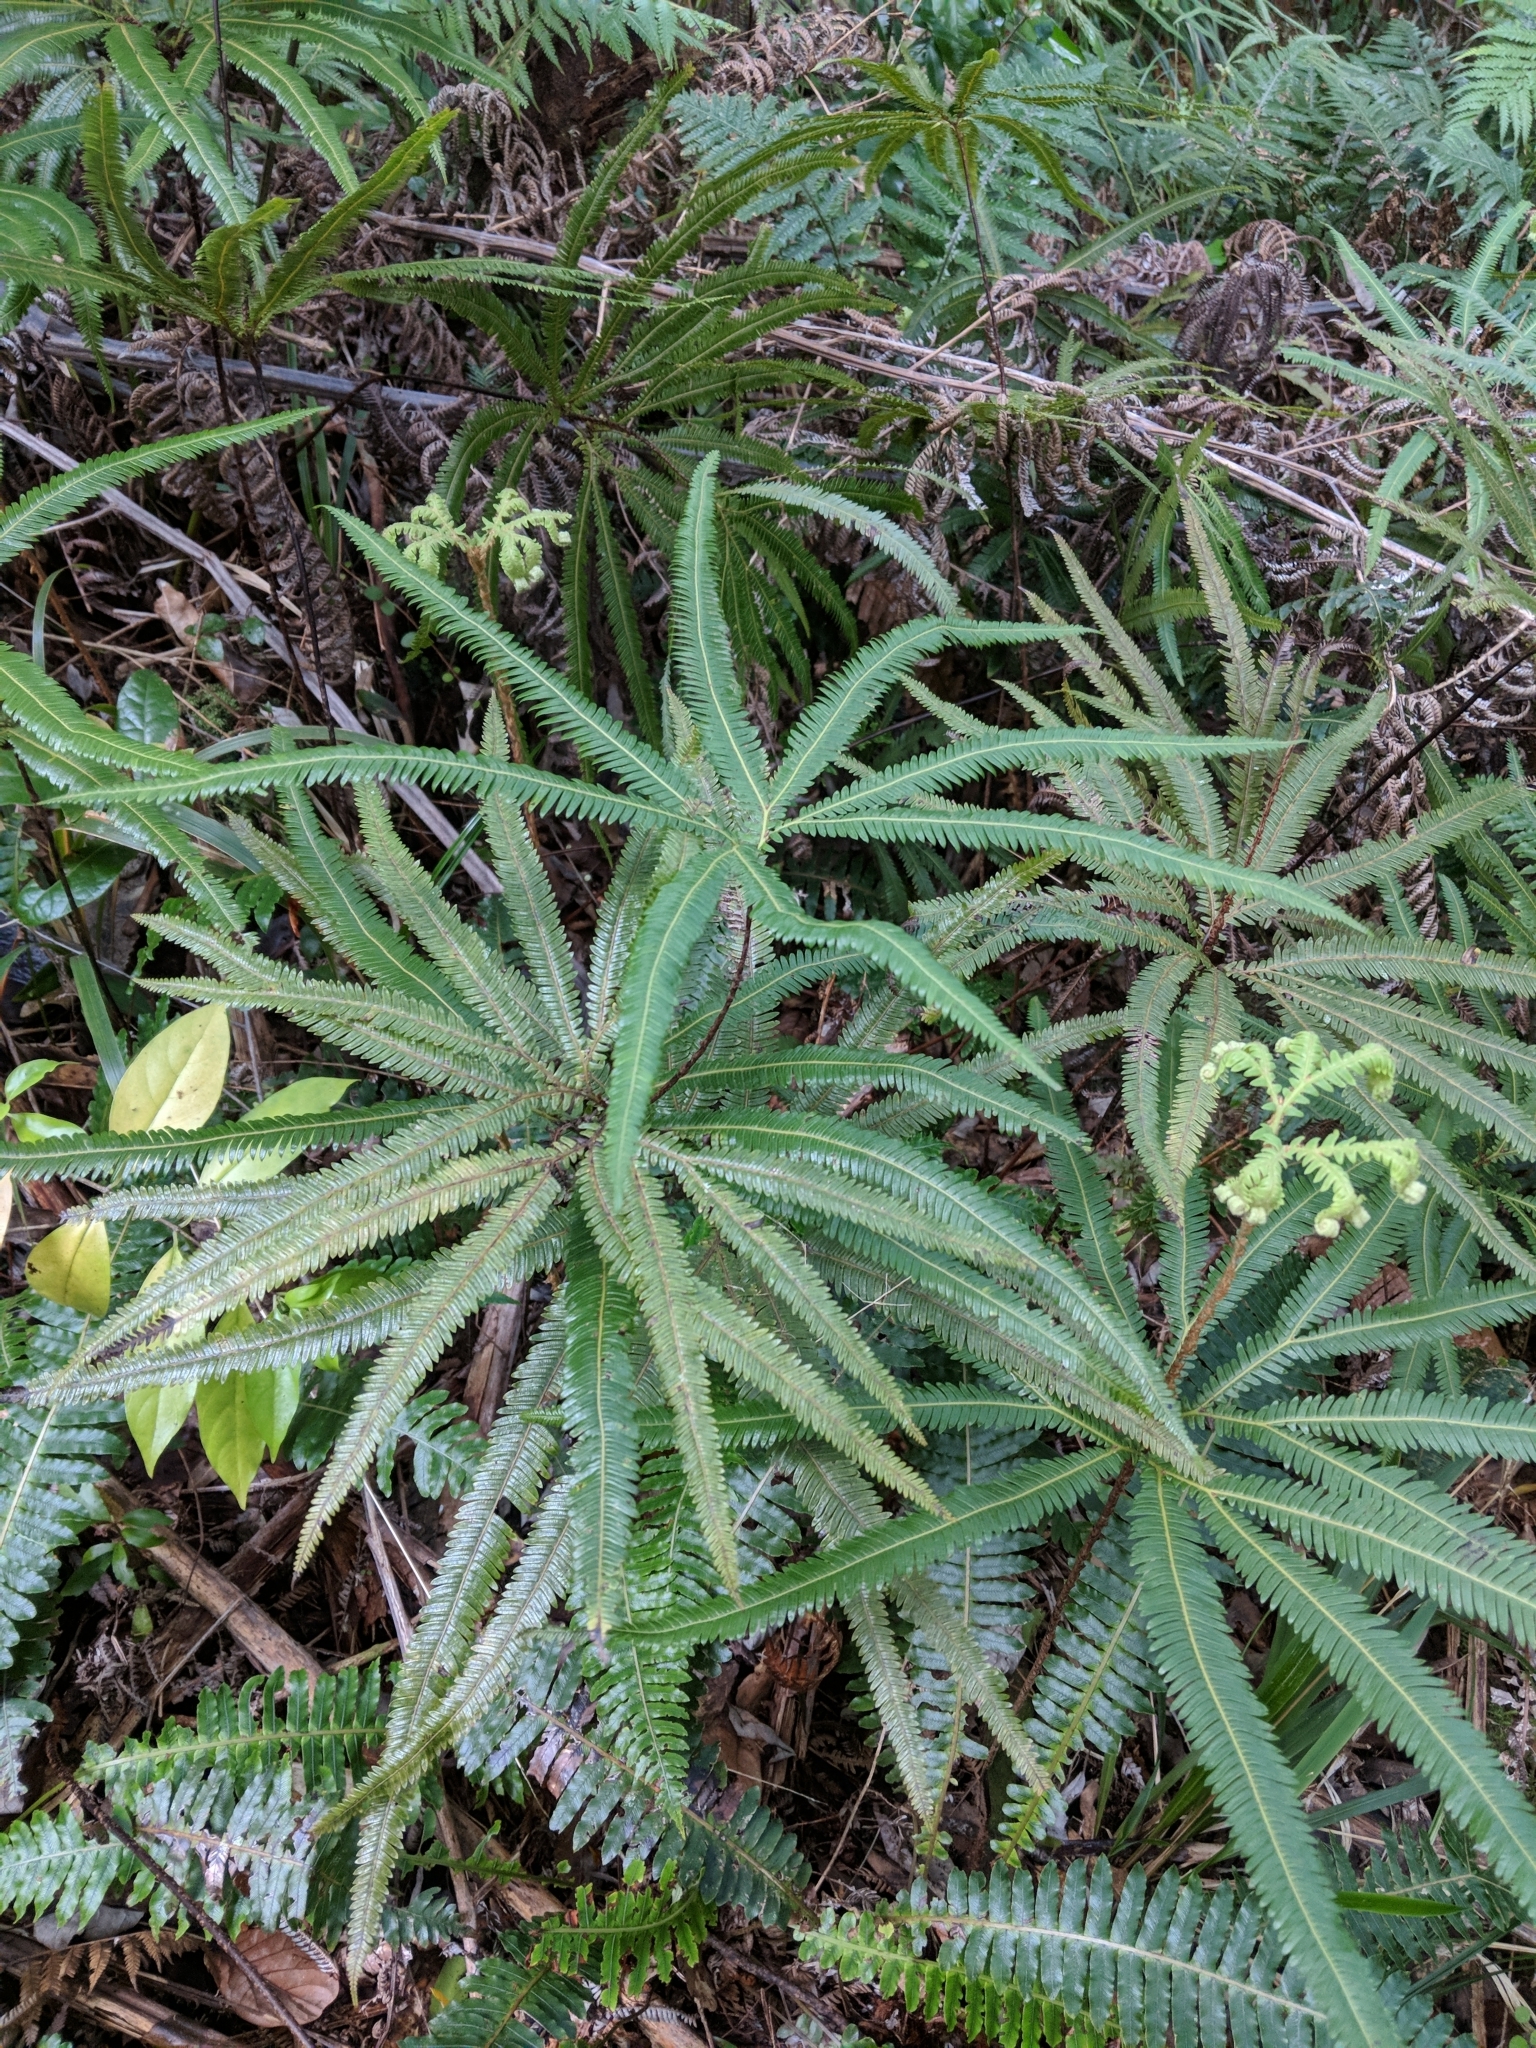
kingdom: Plantae
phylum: Tracheophyta
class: Polypodiopsida
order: Gleicheniales
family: Gleicheniaceae
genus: Sticherus
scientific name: Sticherus cunninghamii
